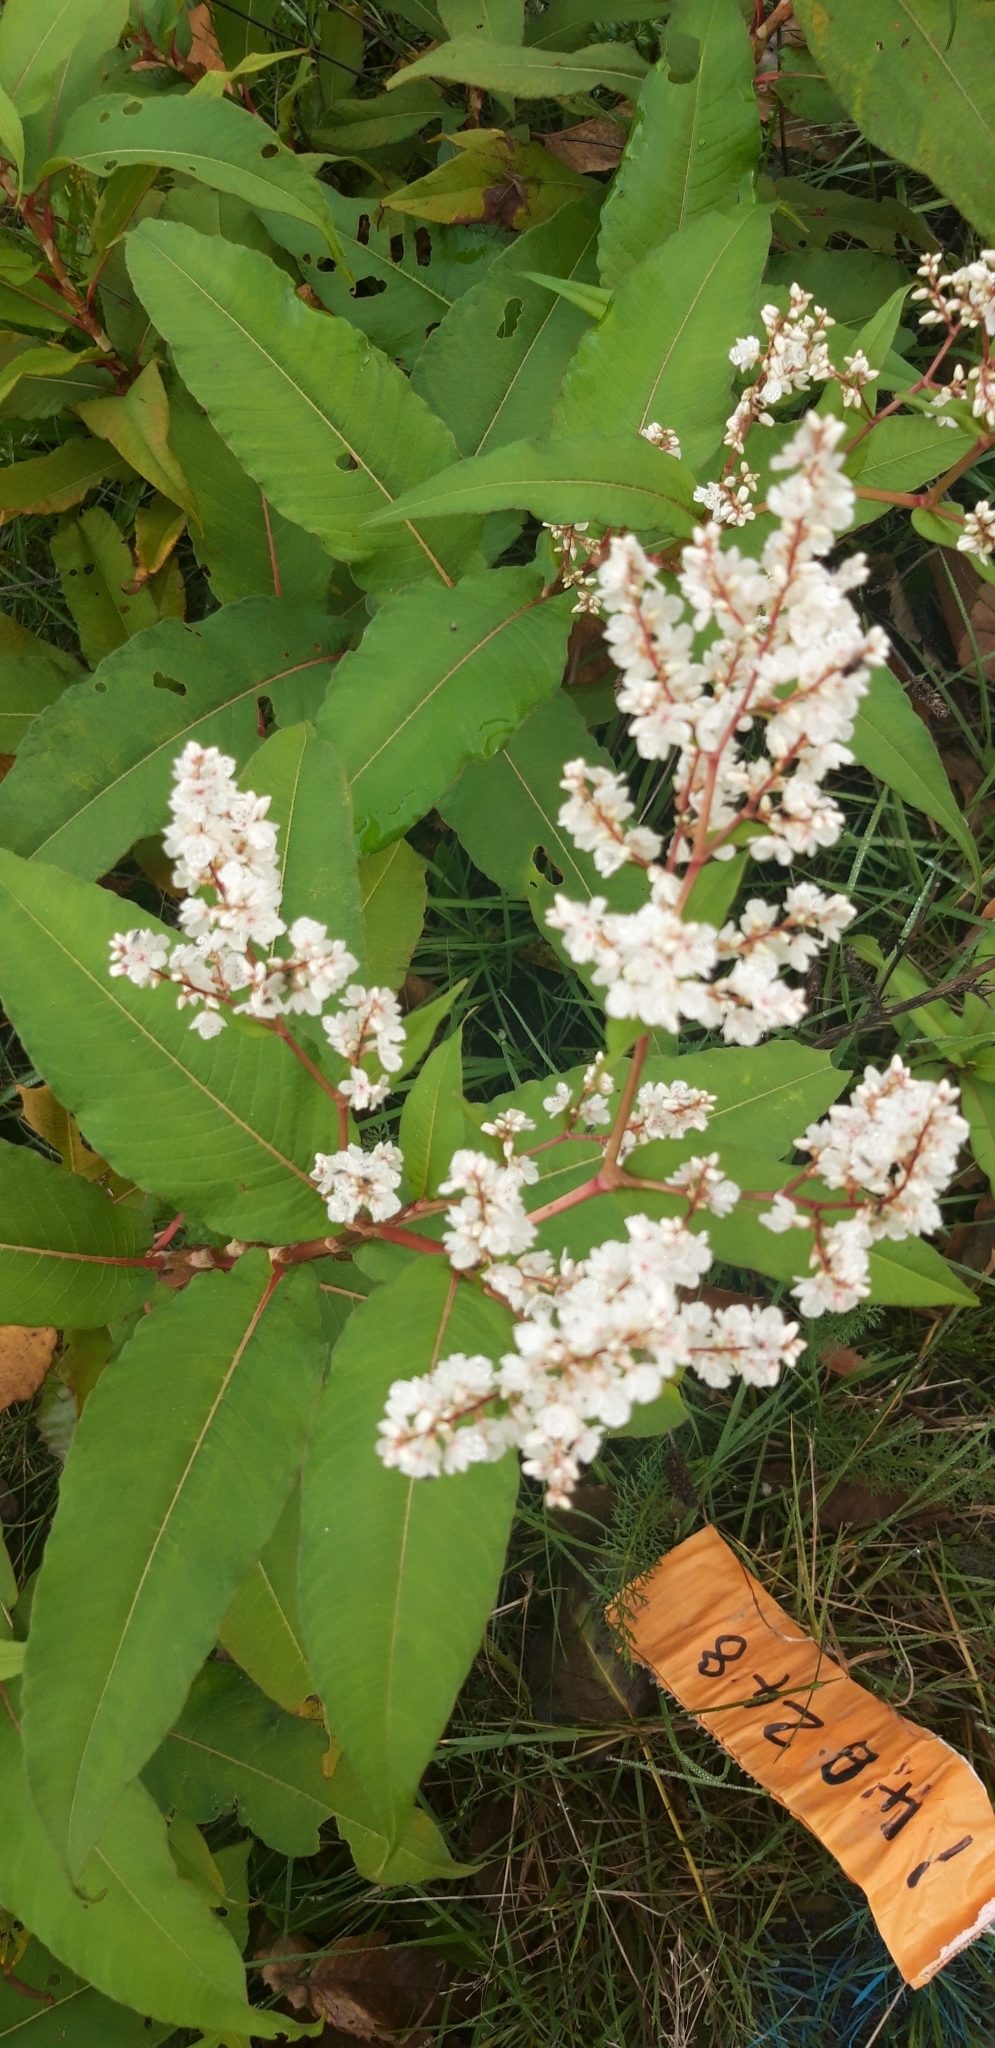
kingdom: Plantae
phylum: Tracheophyta
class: Magnoliopsida
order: Caryophyllales
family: Polygonaceae
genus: Koenigia
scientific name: Koenigia polystachya
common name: Himalayan knotweed
